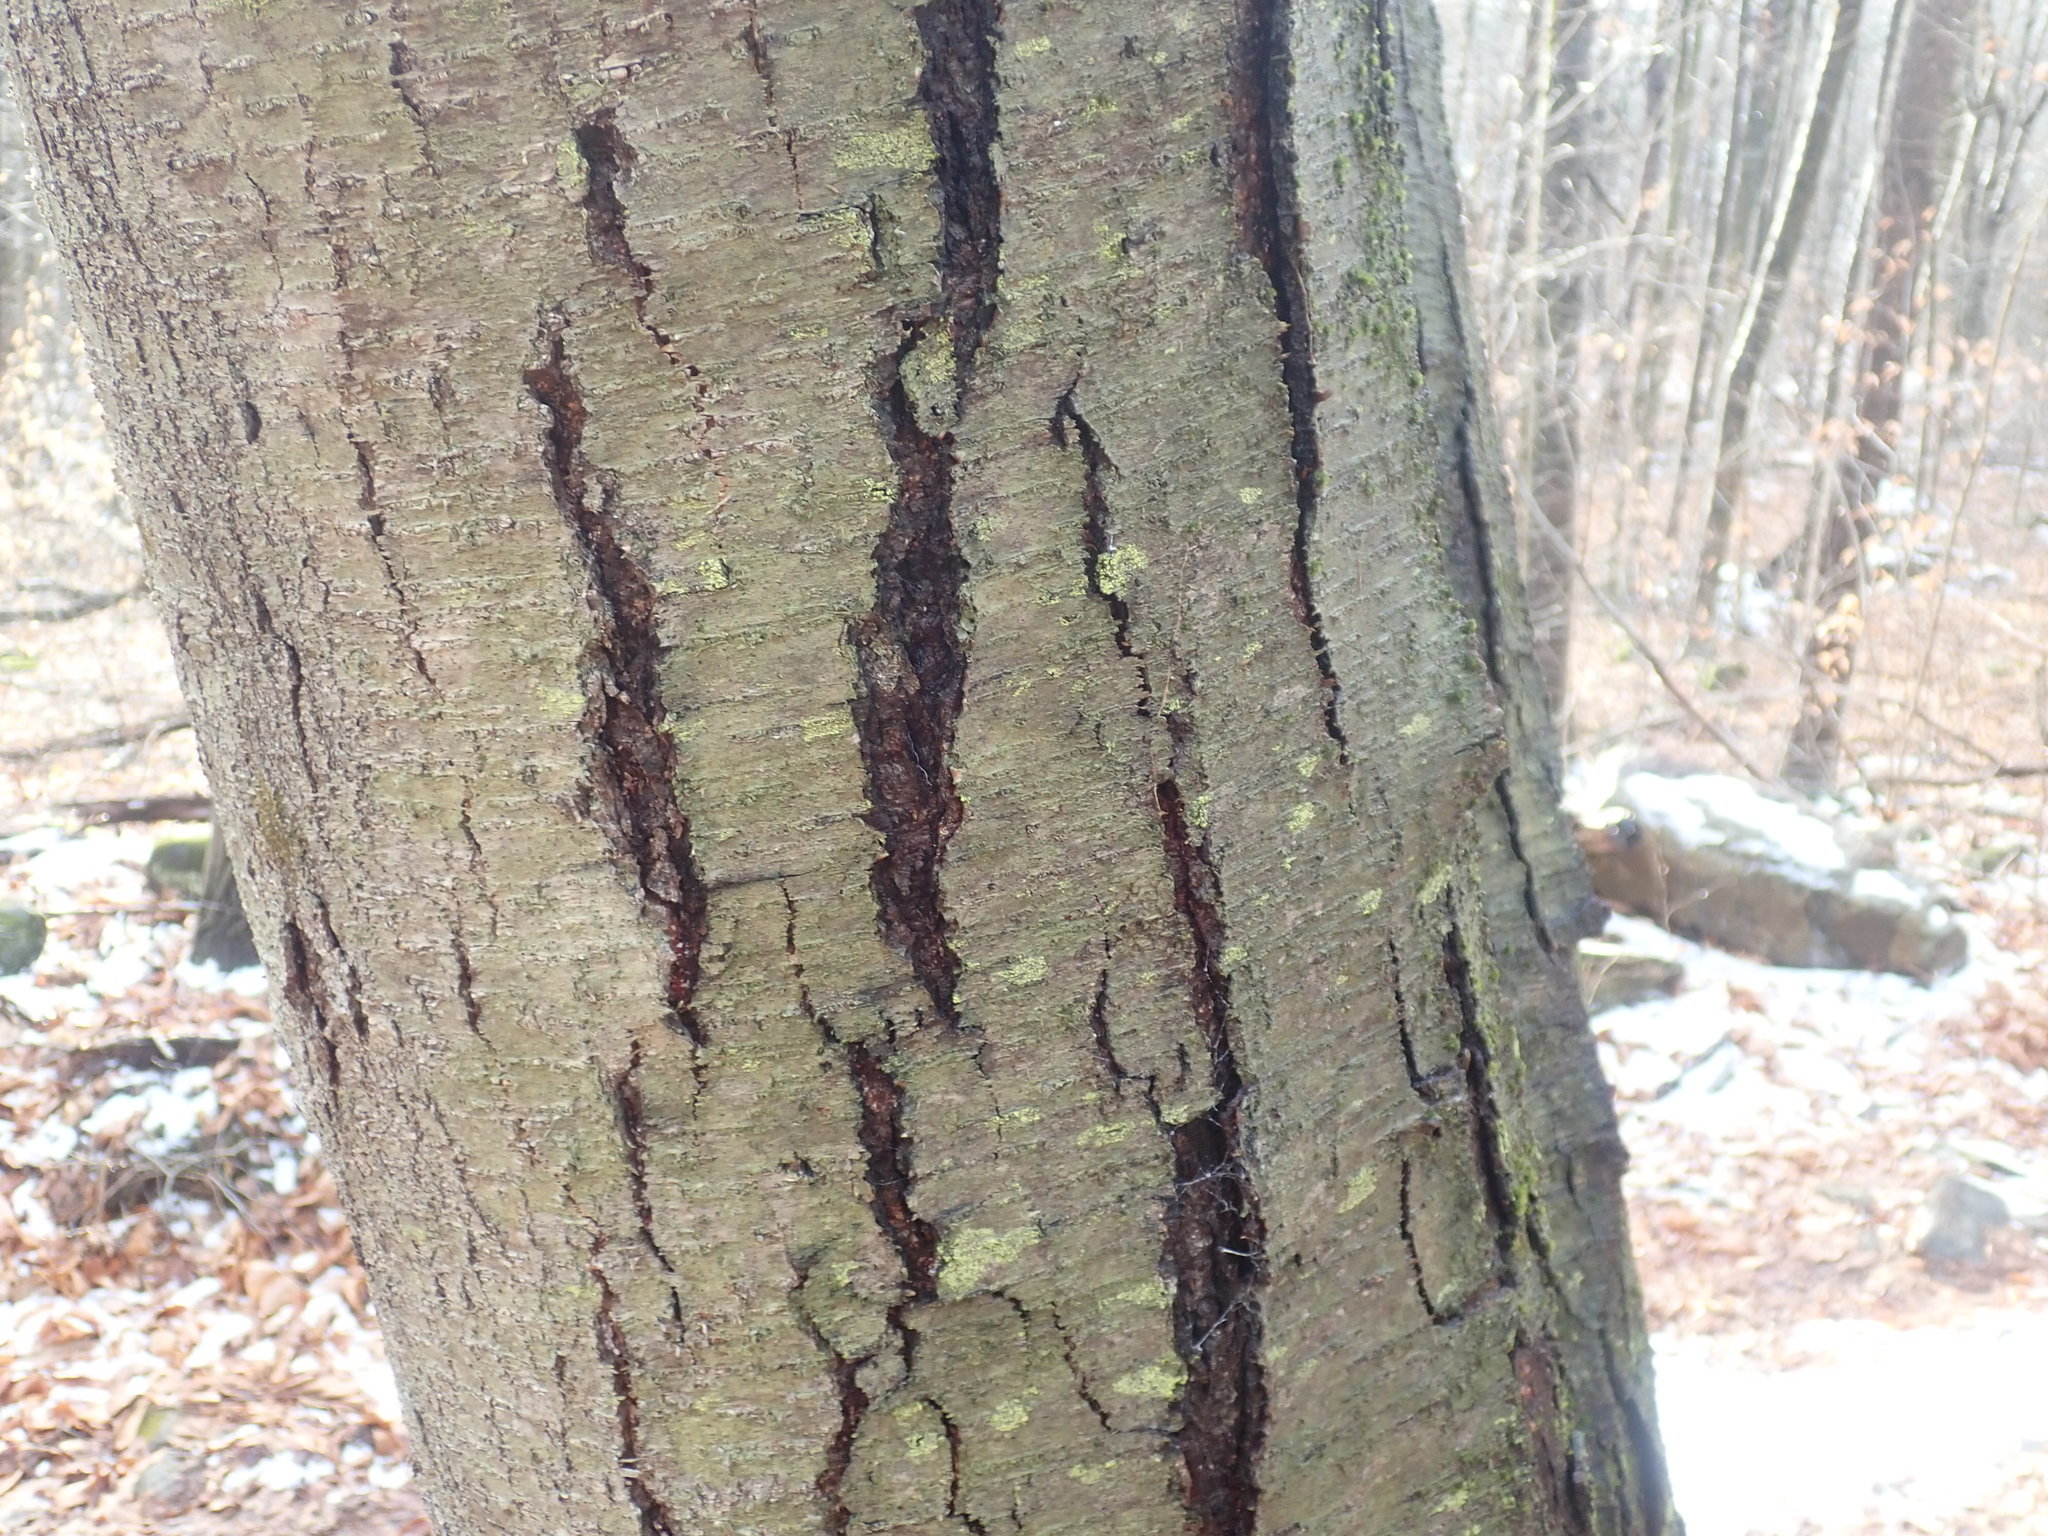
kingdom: Plantae
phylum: Tracheophyta
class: Magnoliopsida
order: Fagales
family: Betulaceae
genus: Betula
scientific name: Betula lenta
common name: Black birch
